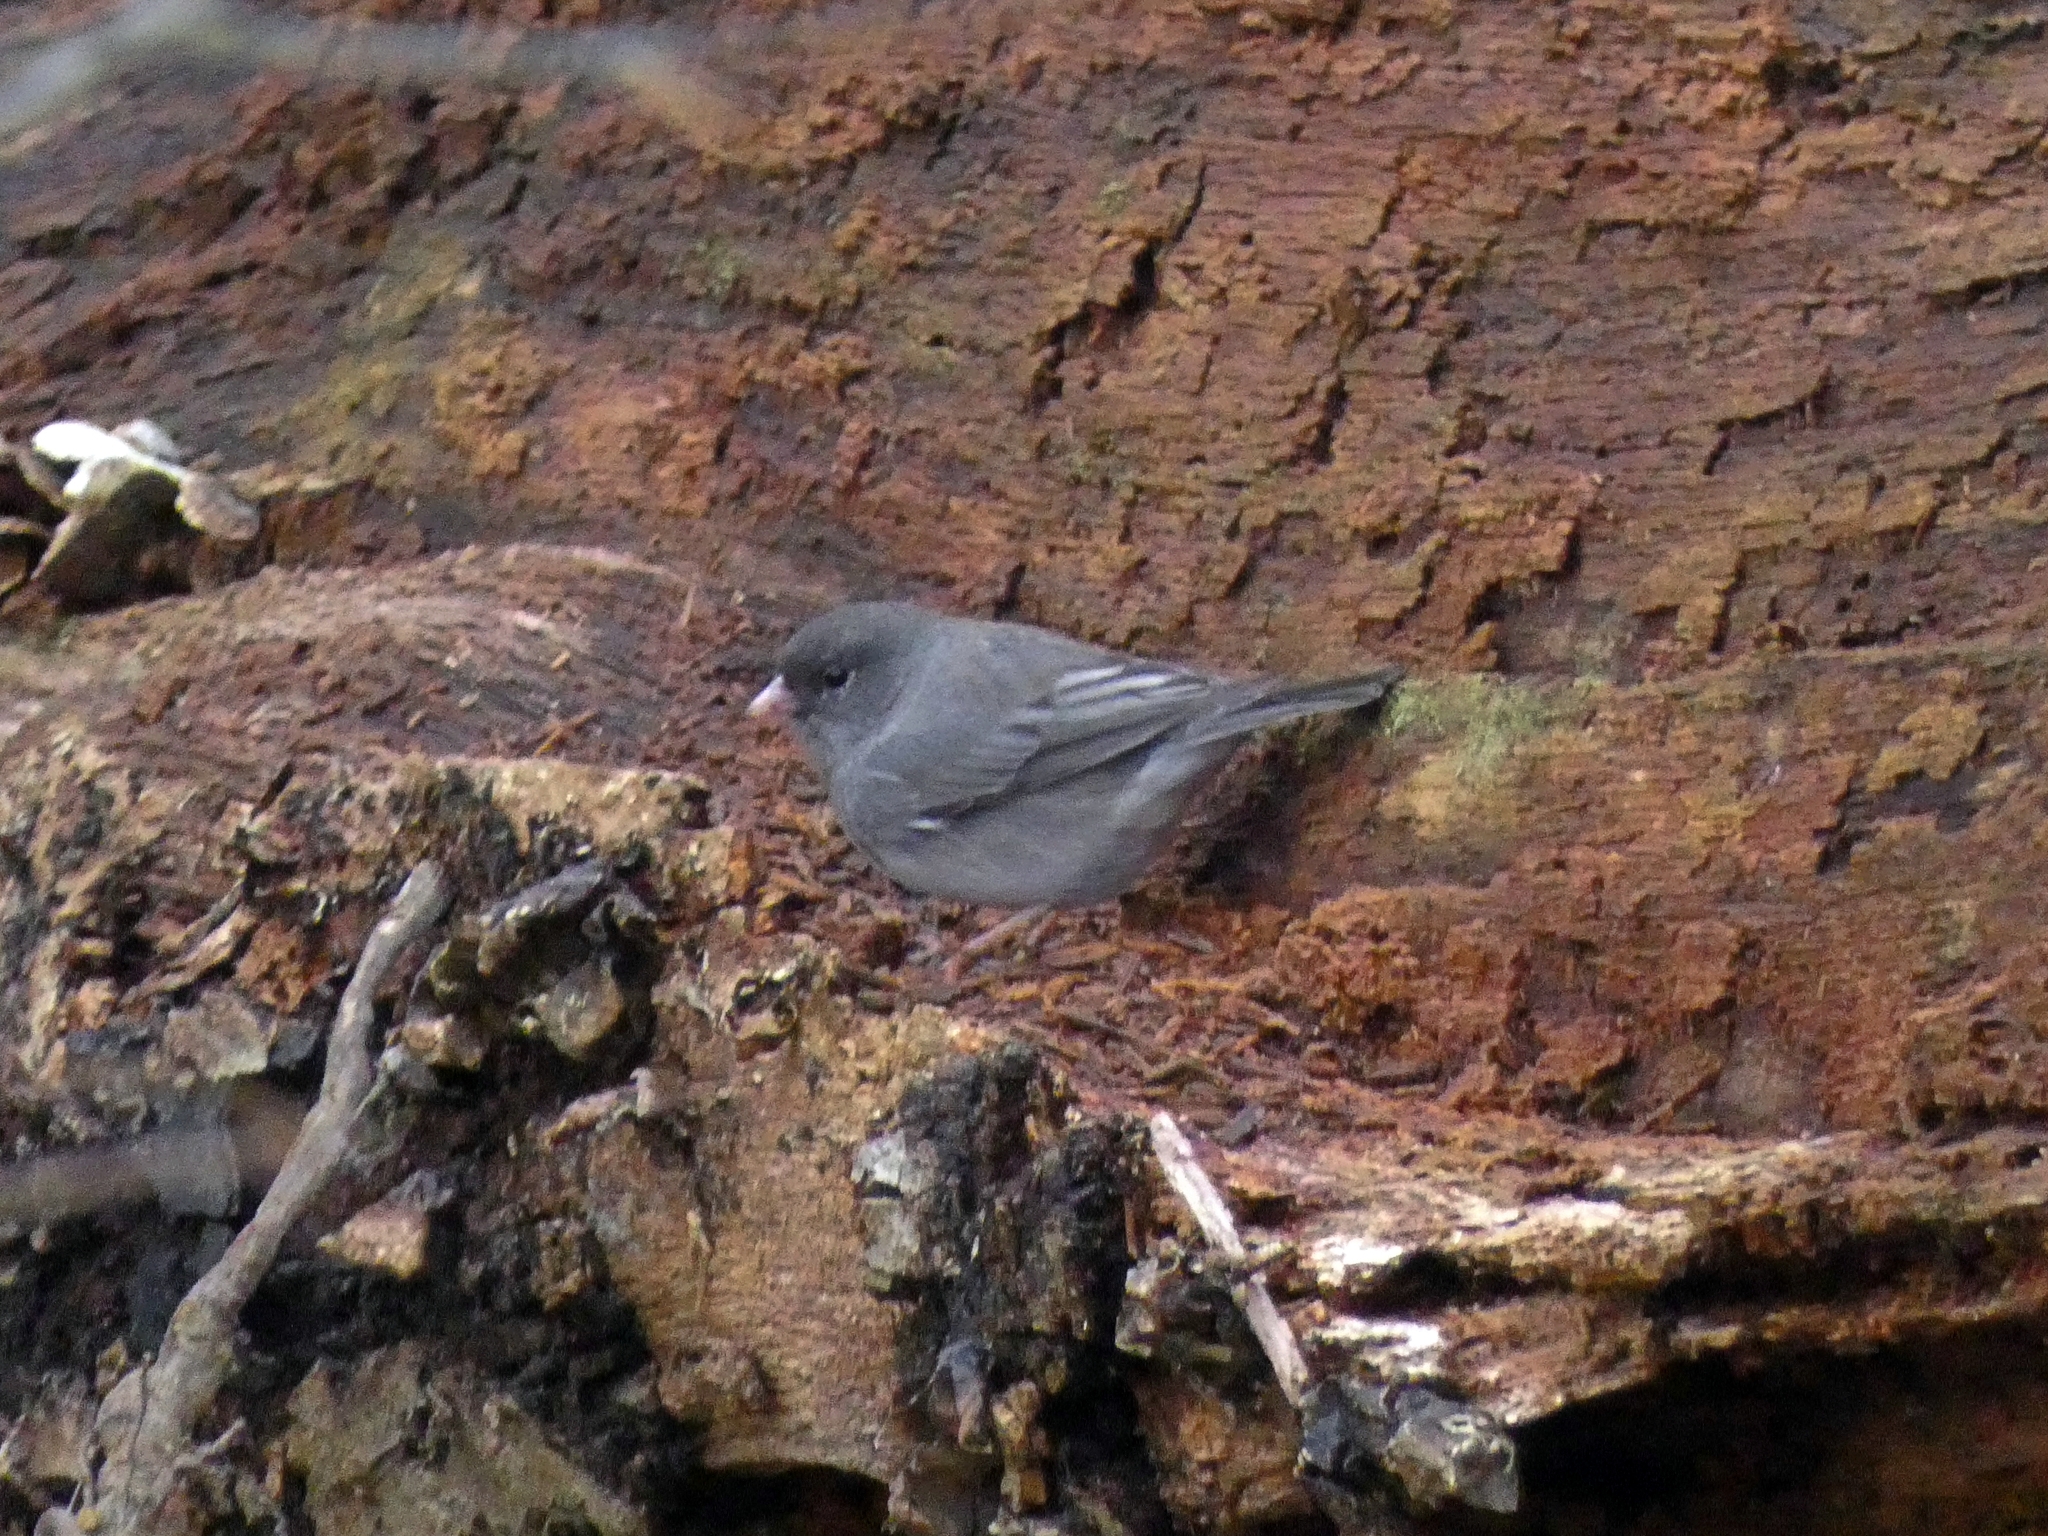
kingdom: Animalia
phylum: Chordata
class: Aves
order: Passeriformes
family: Passerellidae
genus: Junco
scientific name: Junco hyemalis
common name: Dark-eyed junco
